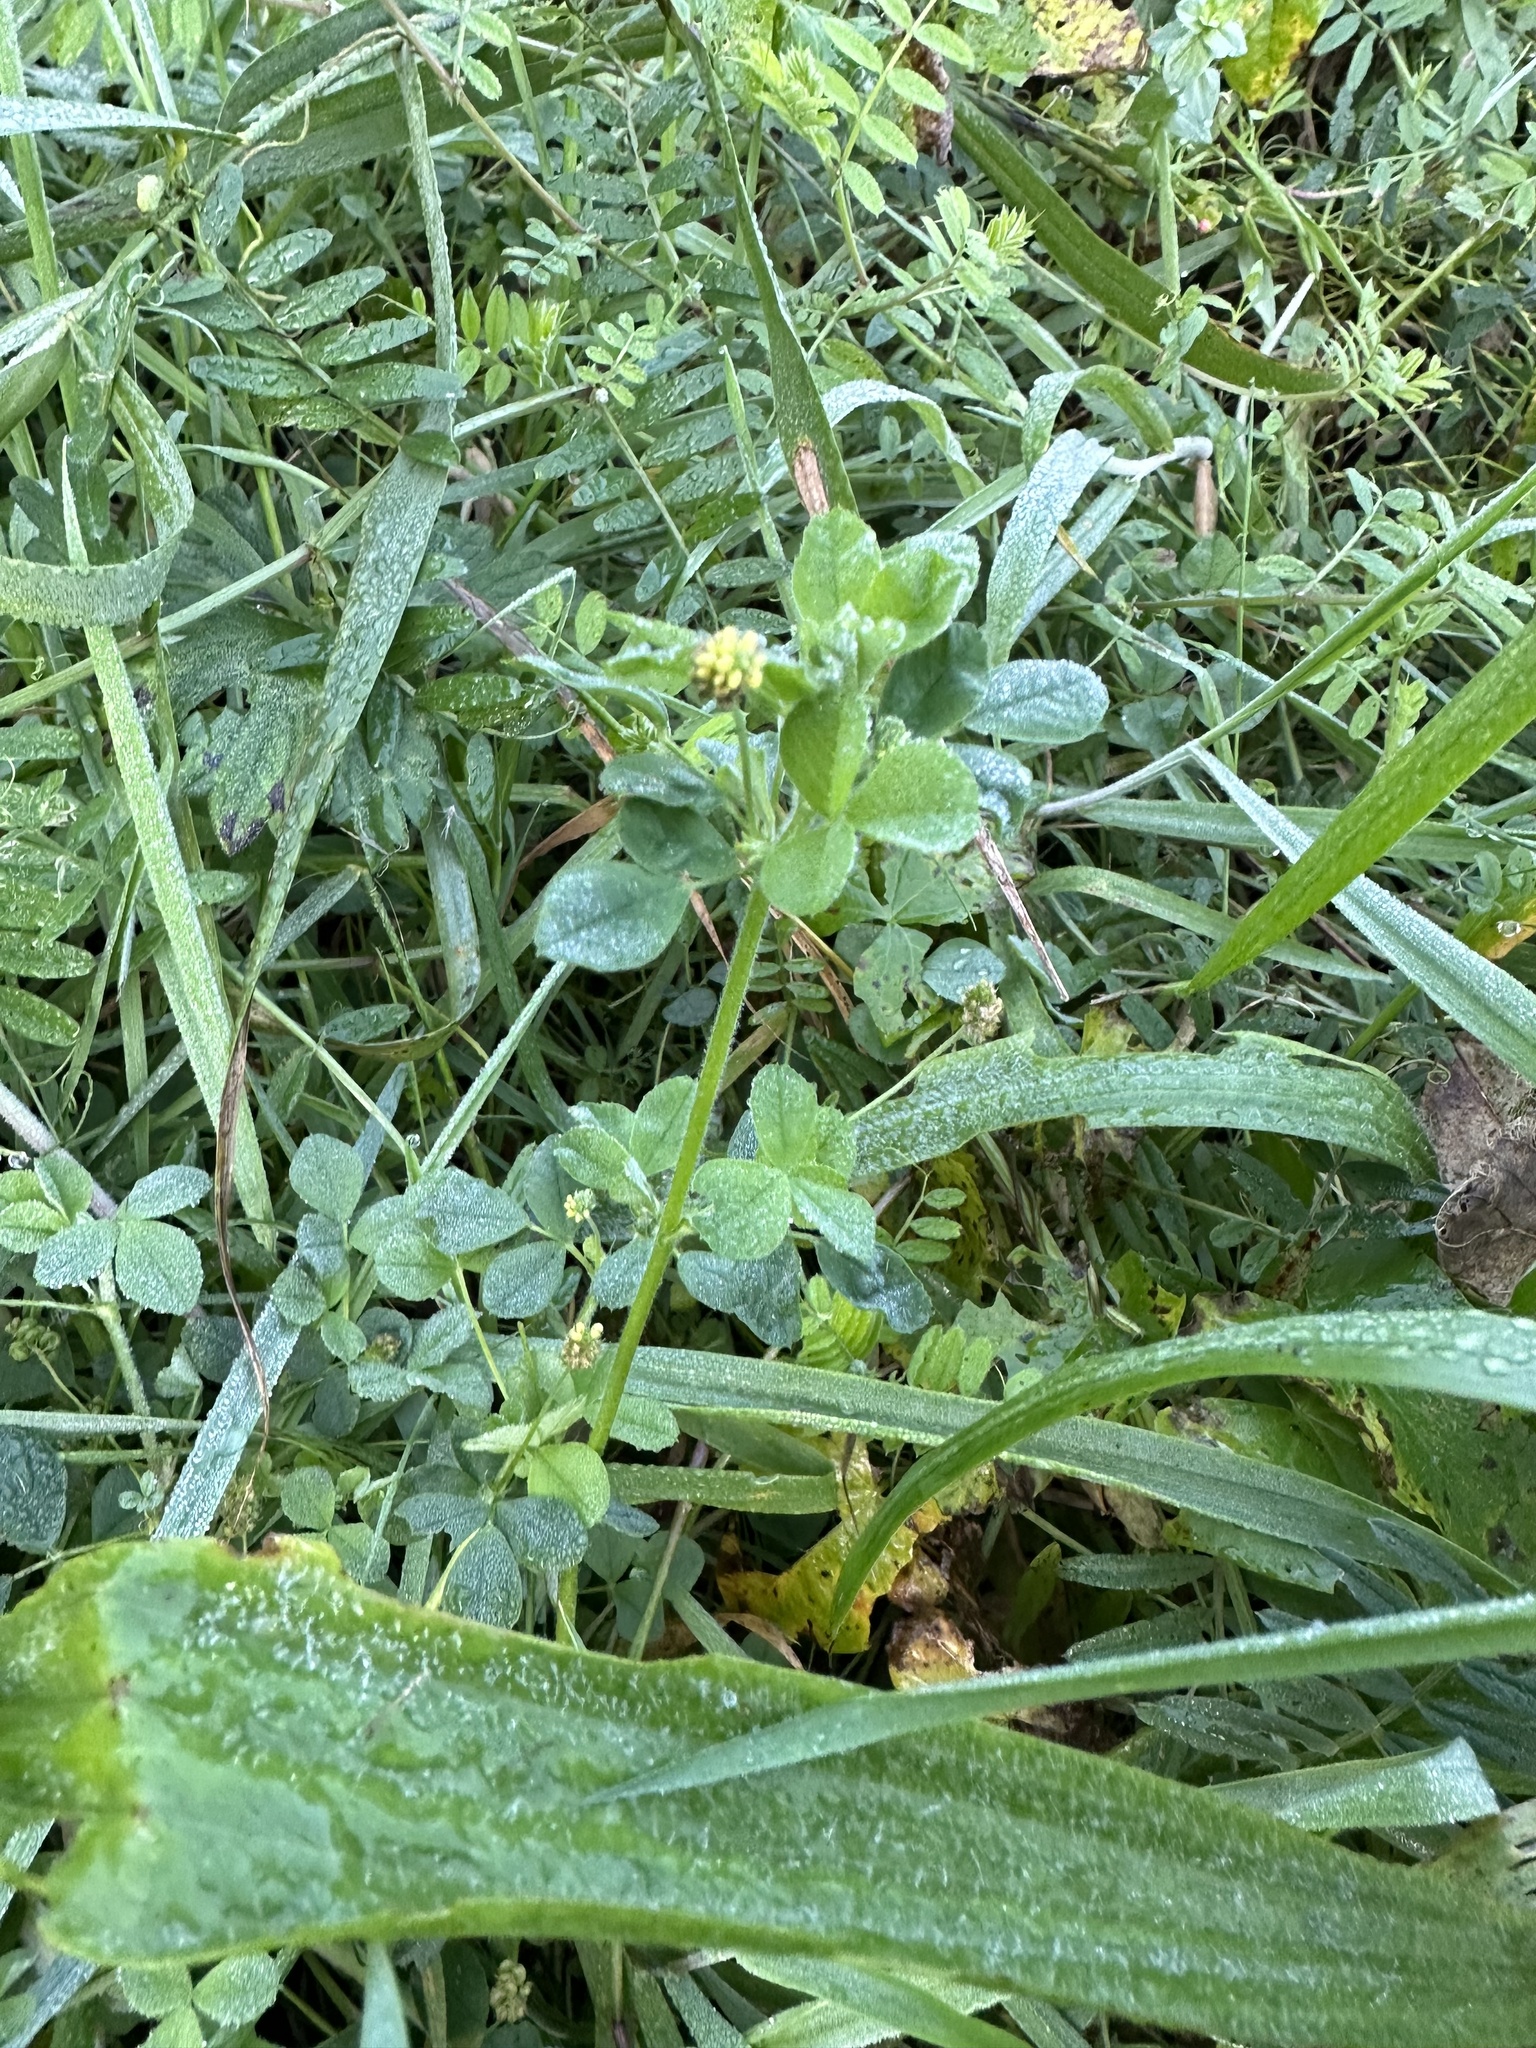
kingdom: Plantae
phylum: Tracheophyta
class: Magnoliopsida
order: Fabales
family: Fabaceae
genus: Medicago
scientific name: Medicago lupulina
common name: Black medick
